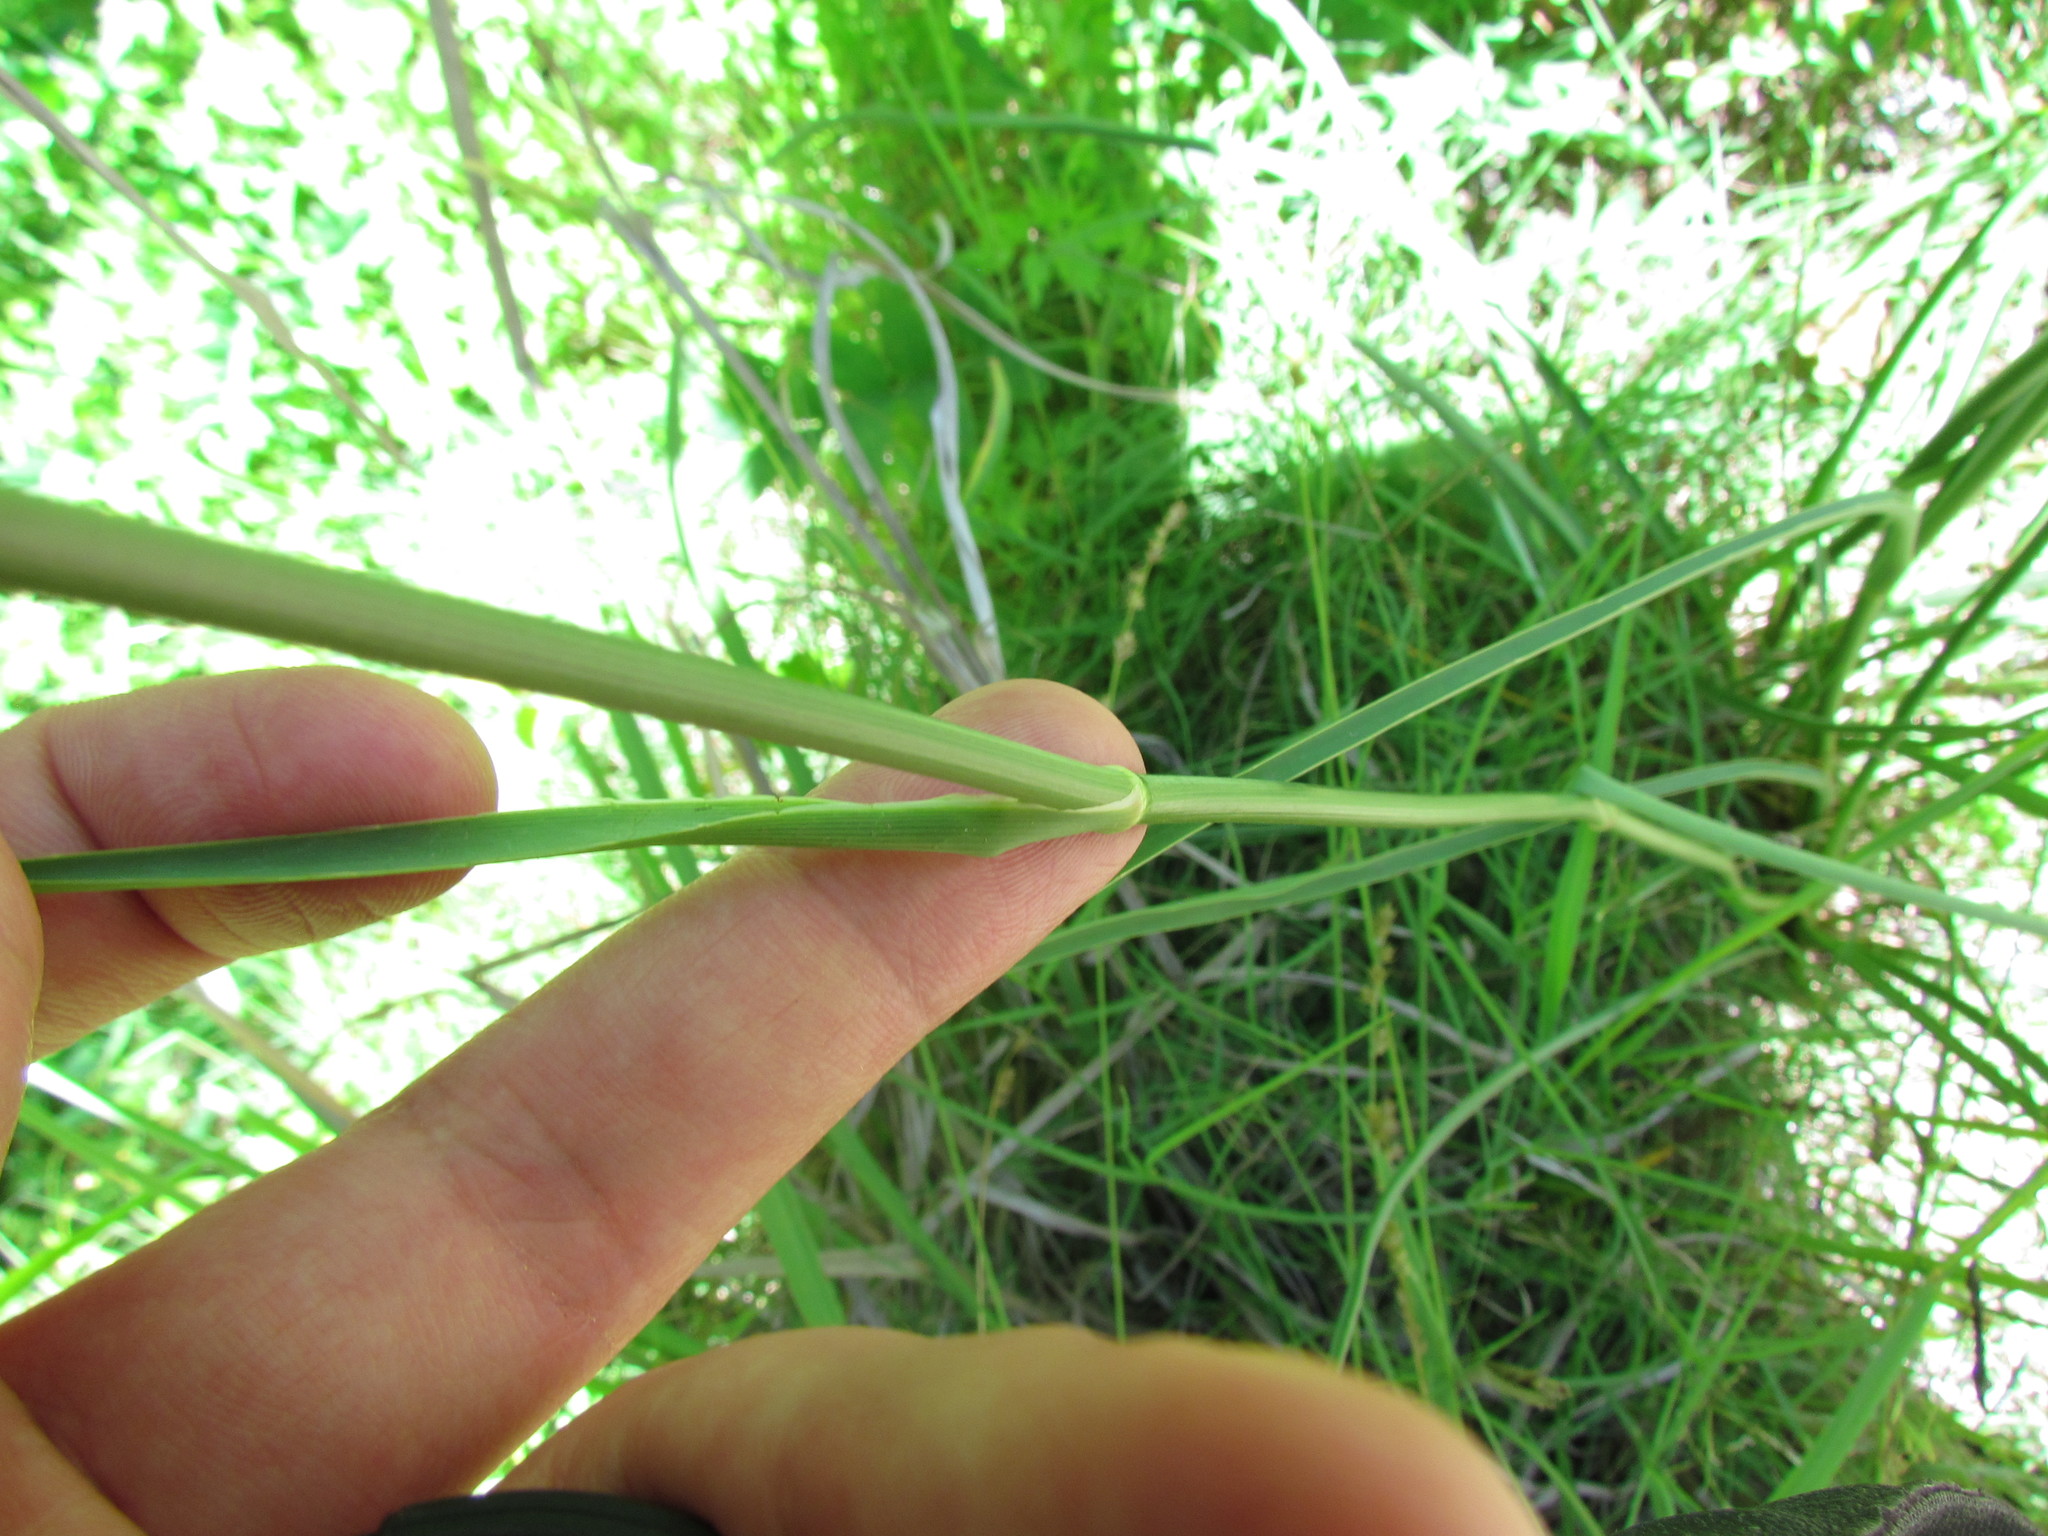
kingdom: Plantae
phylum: Tracheophyta
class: Magnoliopsida
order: Apiales
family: Apiaceae
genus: Eryngium
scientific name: Eryngium ebracteatum
